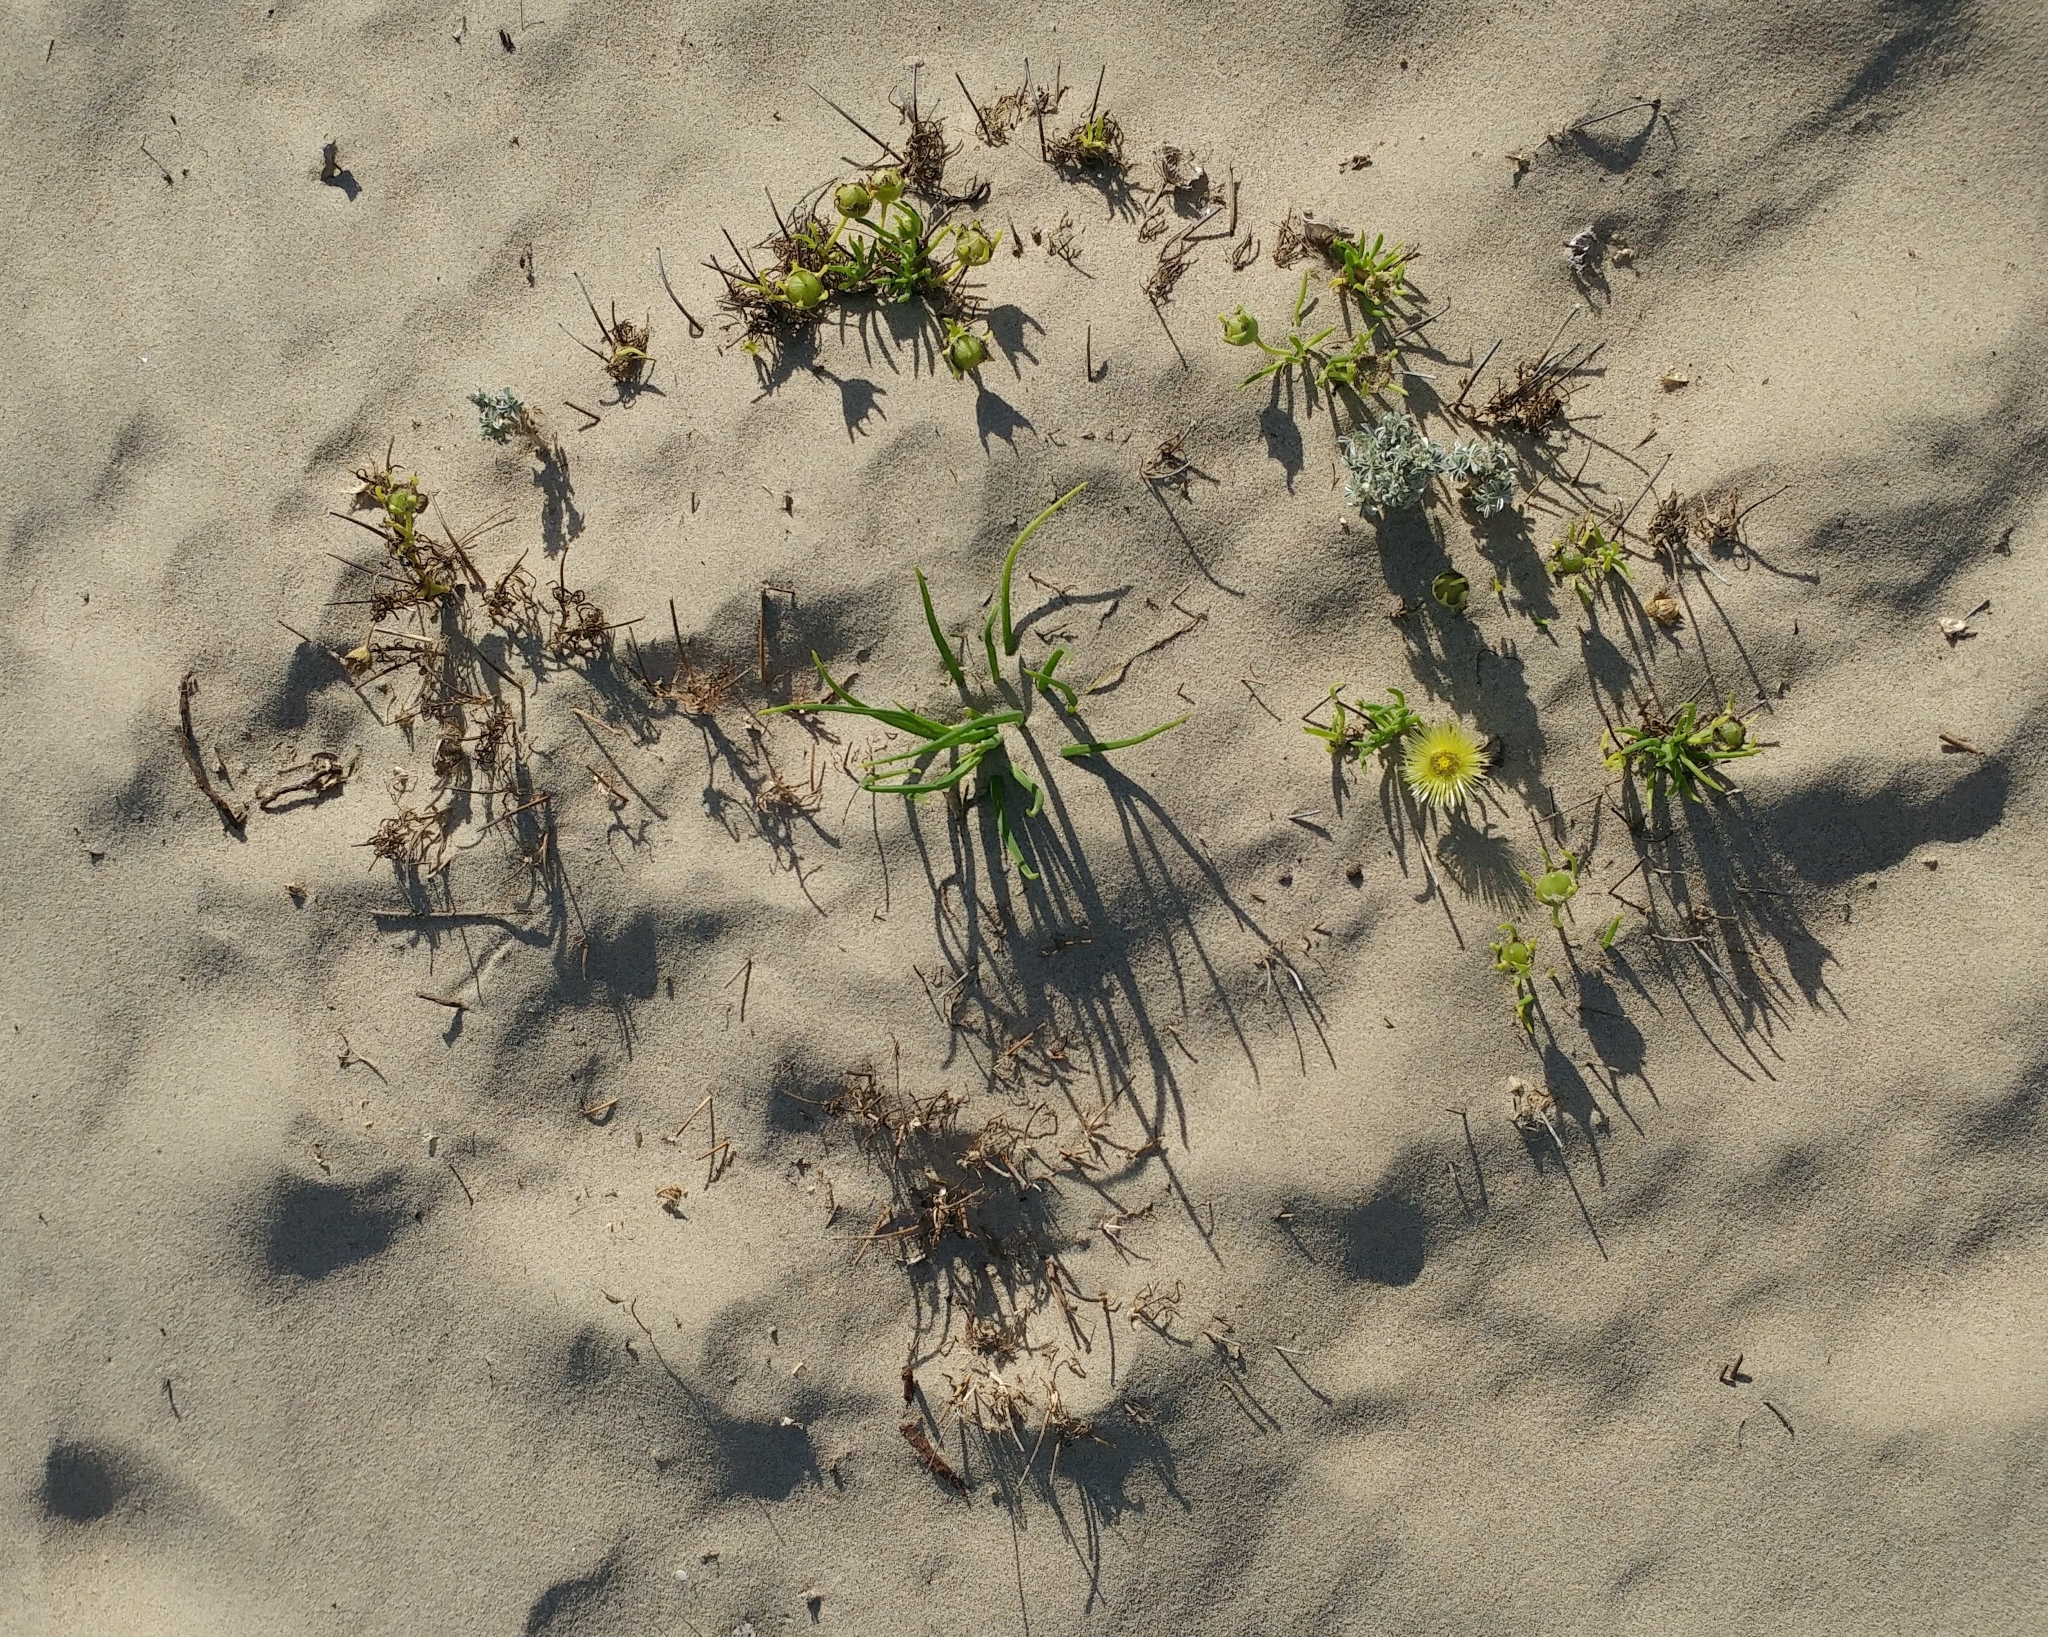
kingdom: Plantae
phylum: Tracheophyta
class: Magnoliopsida
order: Caryophyllales
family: Aizoaceae
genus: Conicosia
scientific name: Conicosia pugioniformis
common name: Narrow-leaved iceplant
